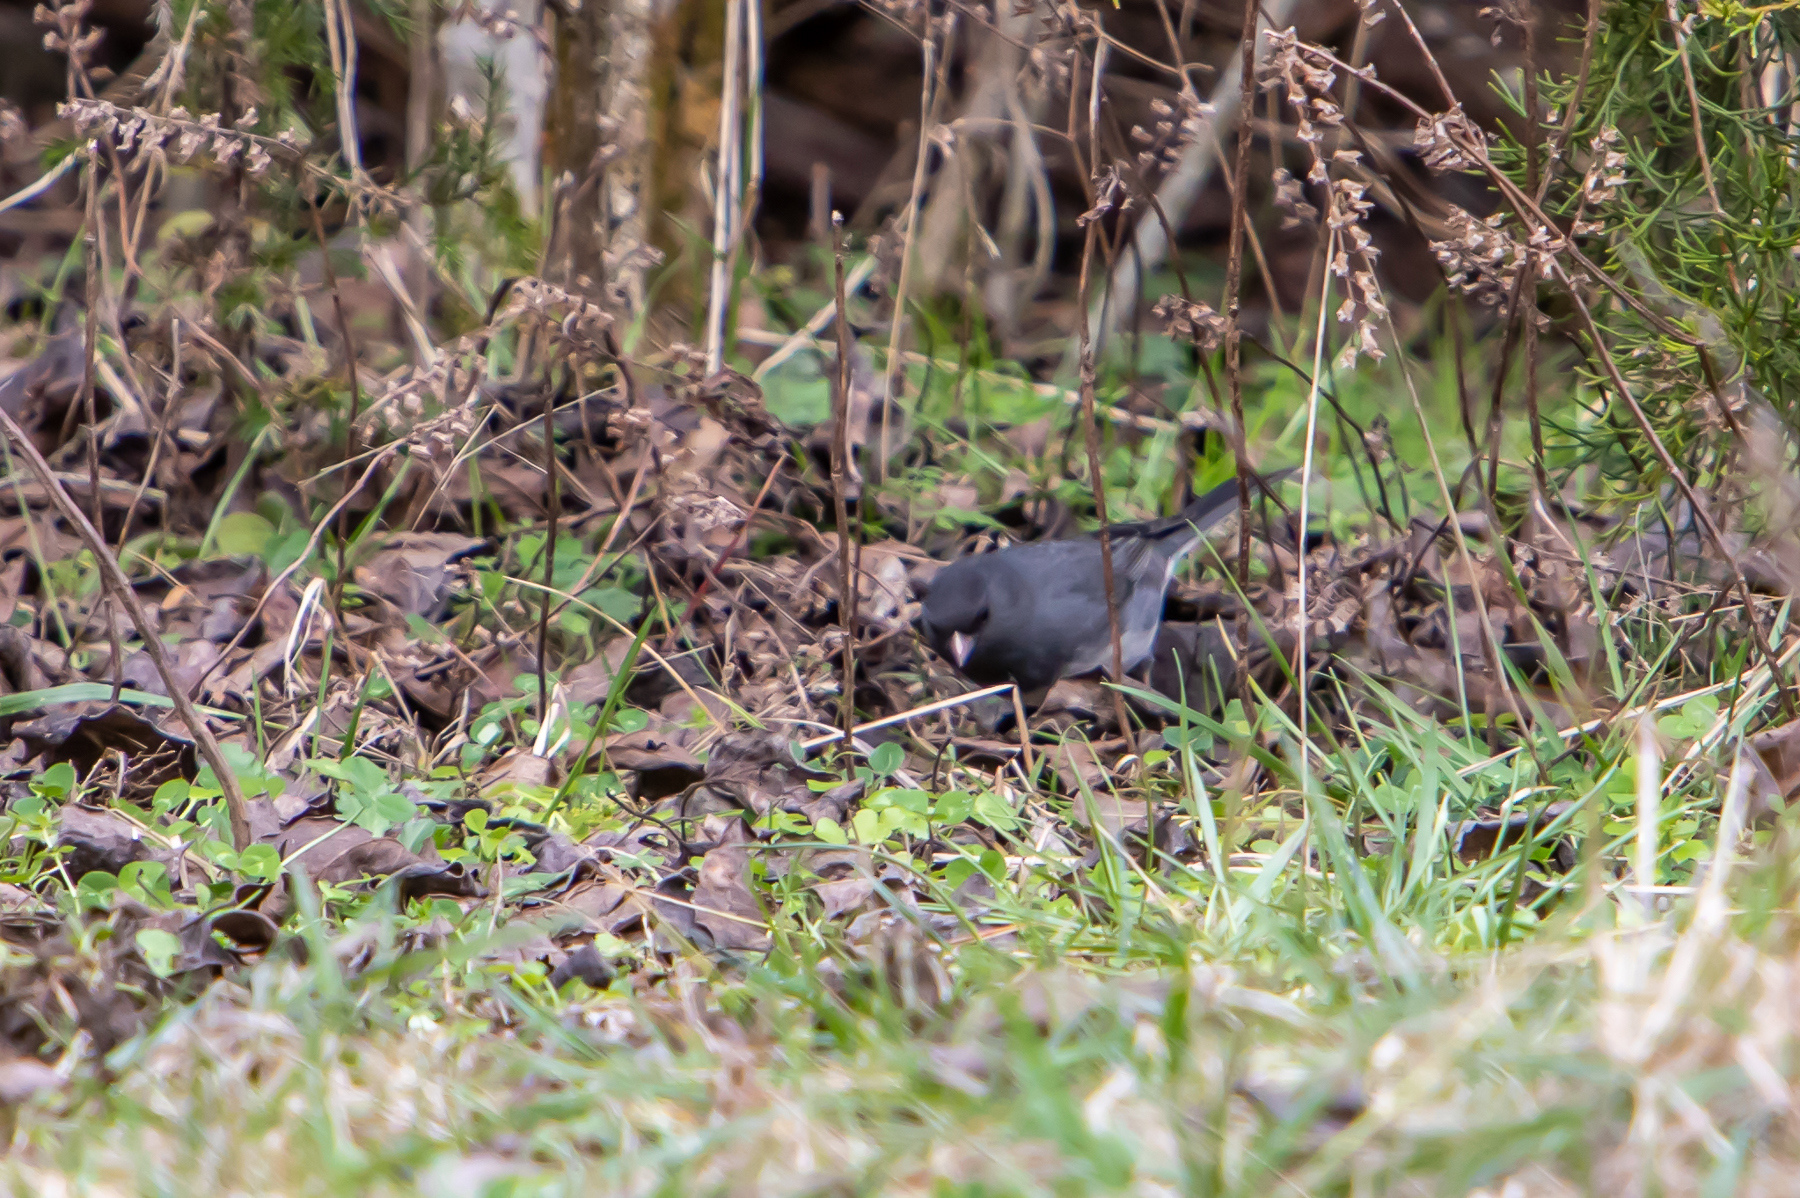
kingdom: Animalia
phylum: Chordata
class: Aves
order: Passeriformes
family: Passerellidae
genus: Junco
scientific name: Junco hyemalis
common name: Dark-eyed junco
